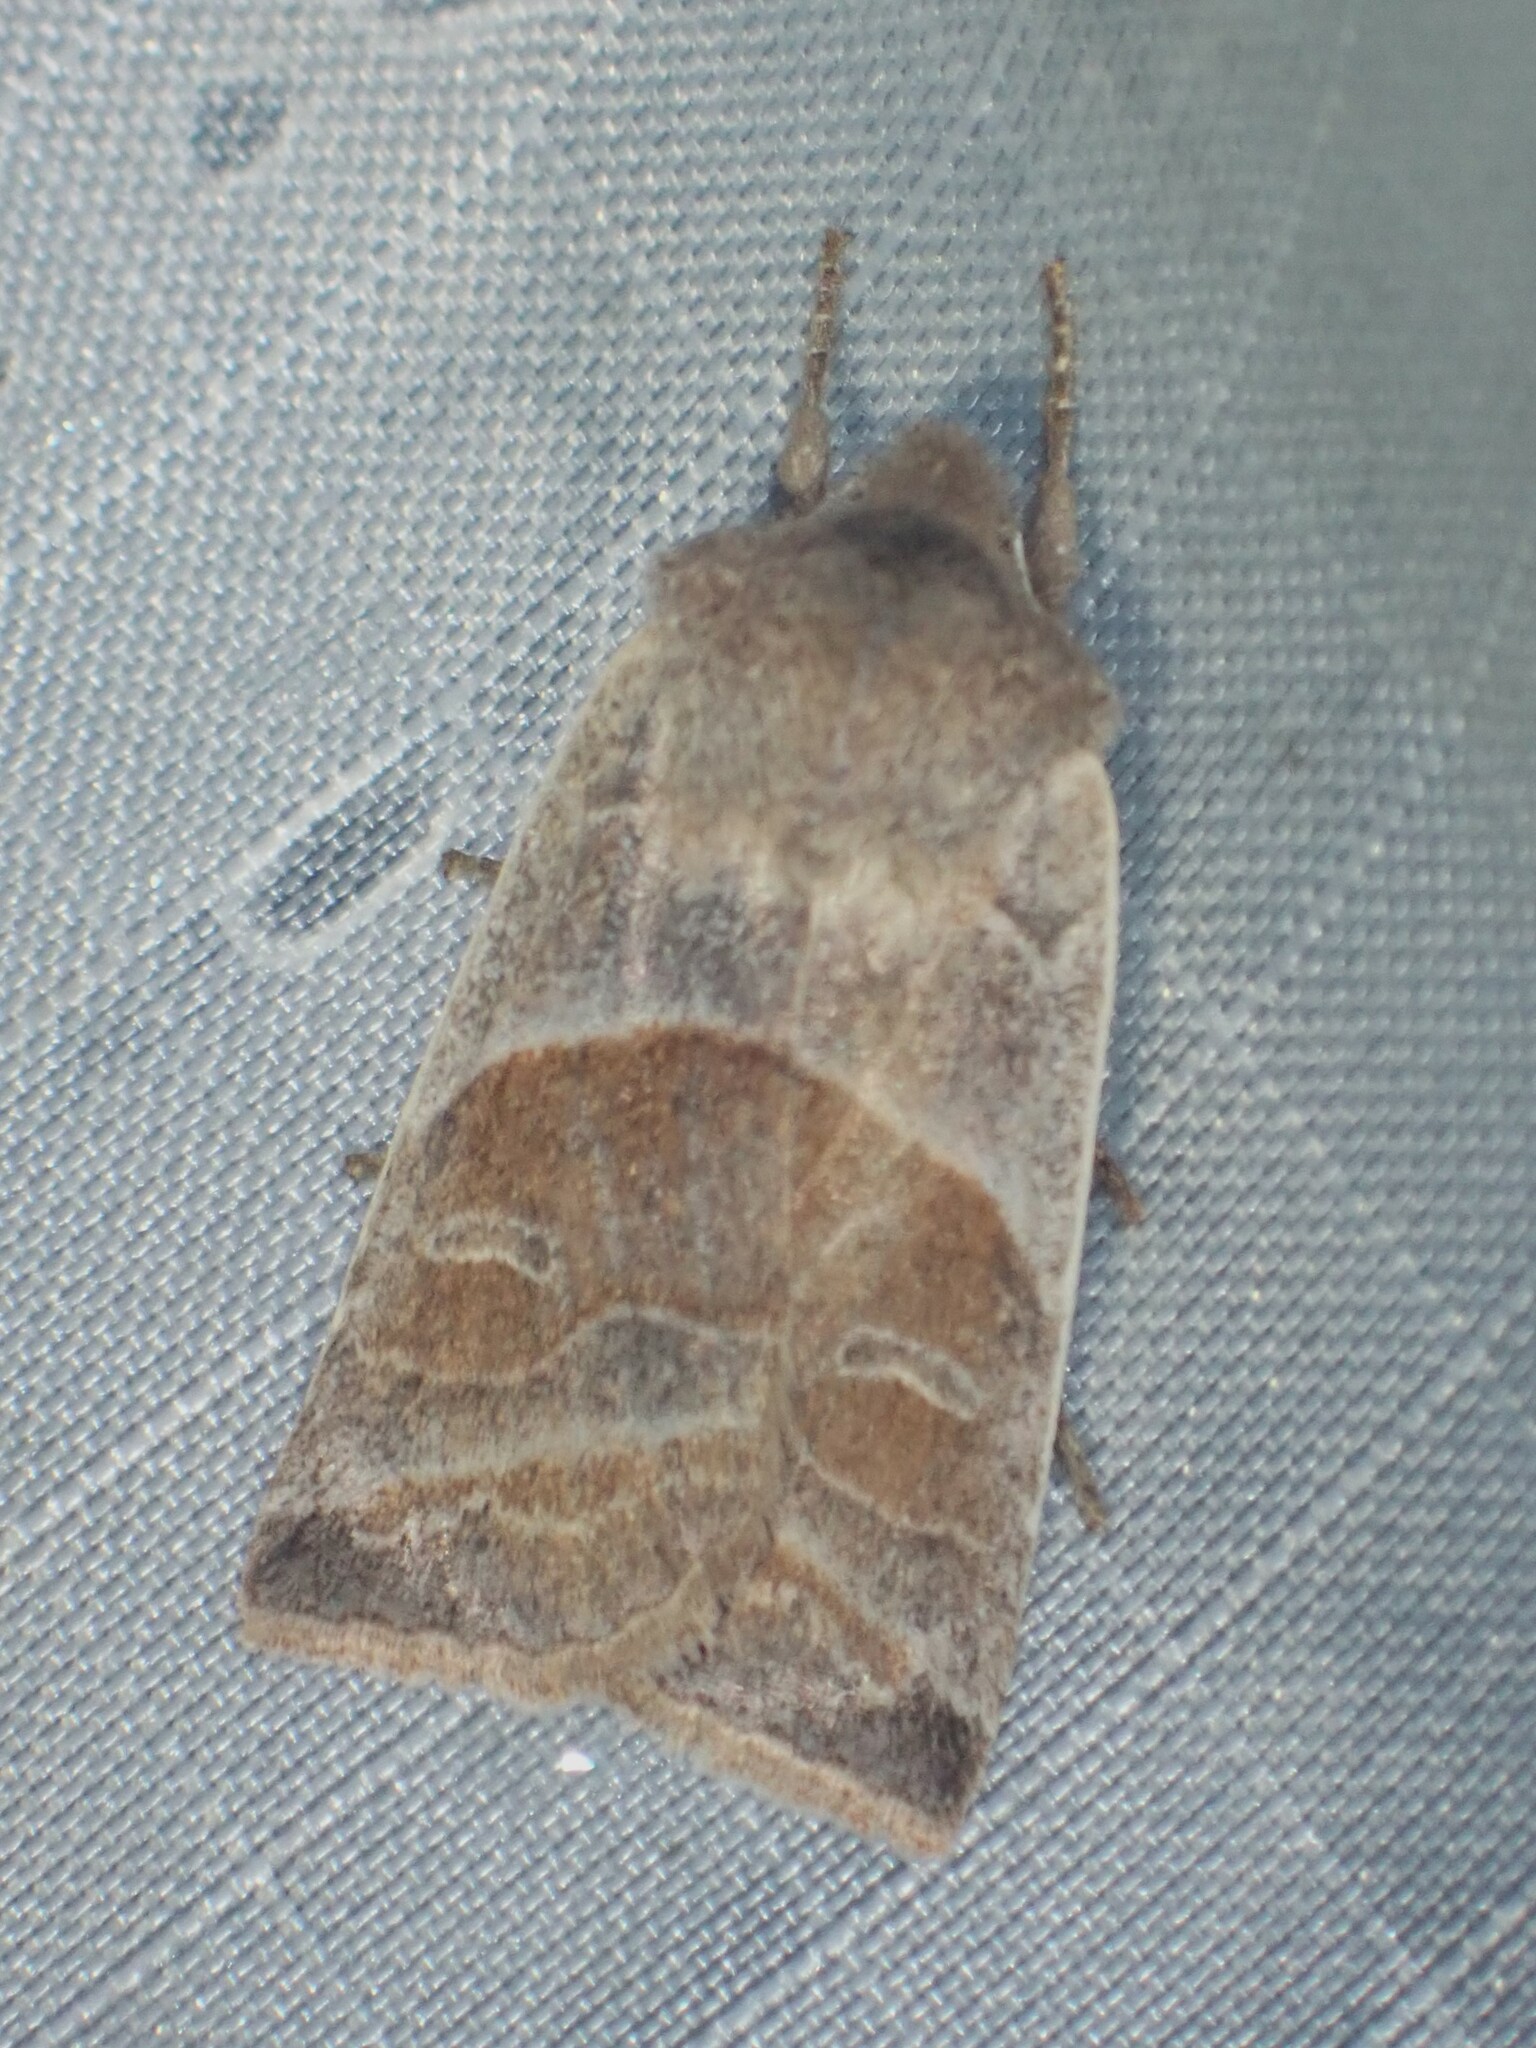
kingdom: Animalia
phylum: Arthropoda
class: Insecta
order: Lepidoptera
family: Noctuidae
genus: Eupsilia
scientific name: Eupsilia devia
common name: Lost sallow
